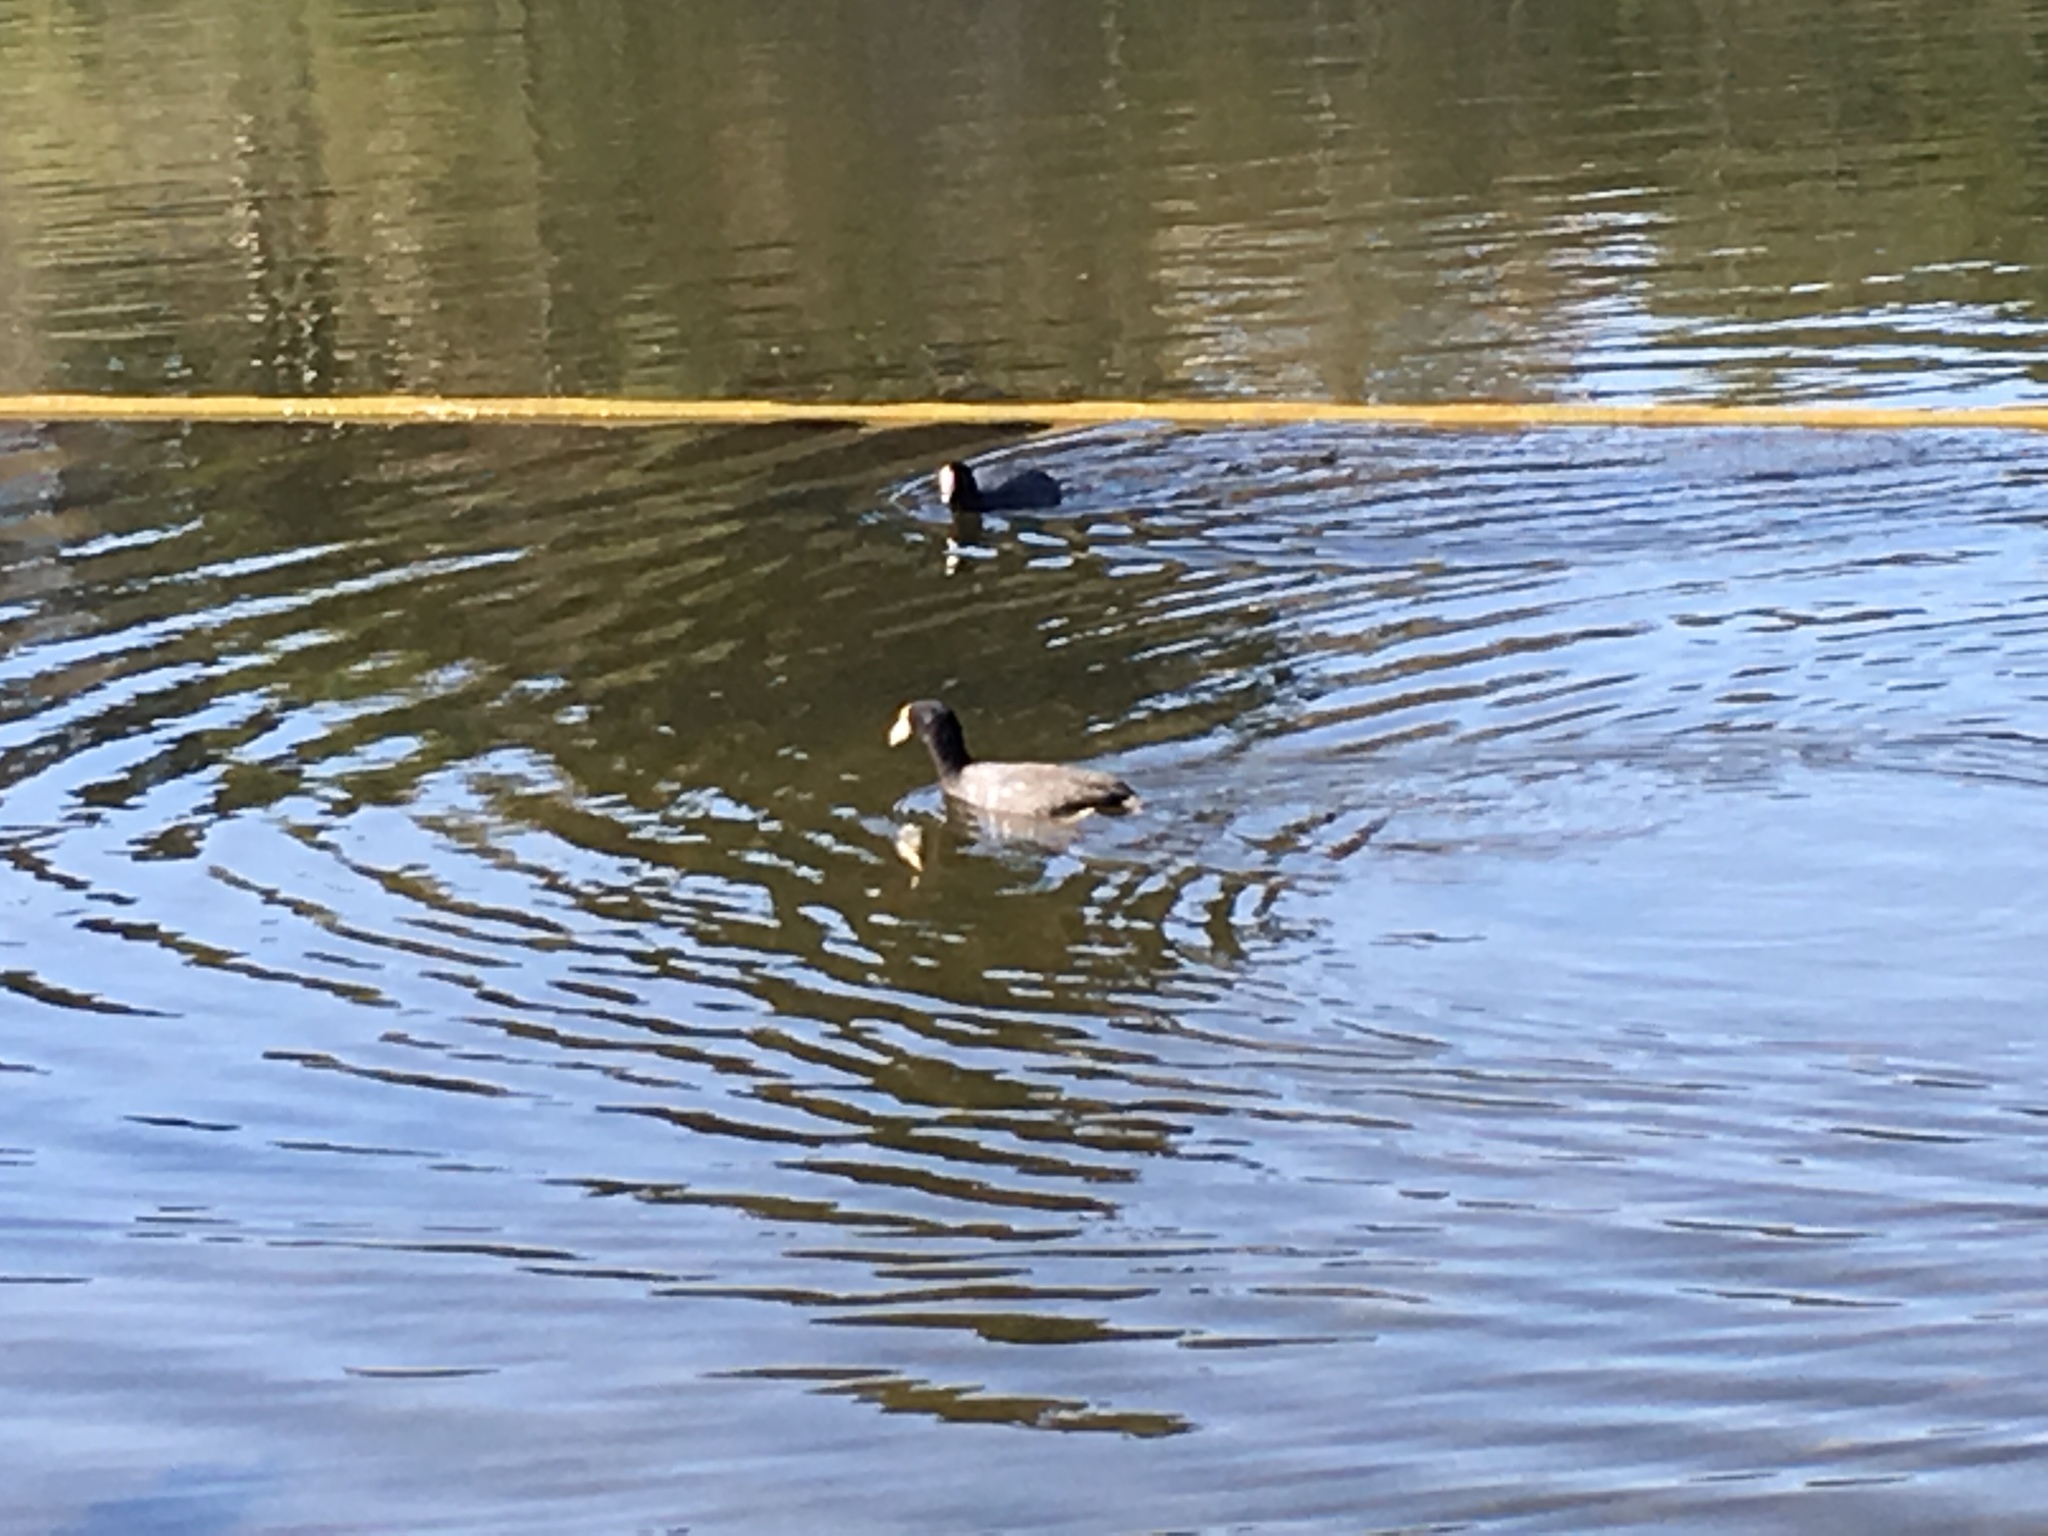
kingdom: Animalia
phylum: Chordata
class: Aves
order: Gruiformes
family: Rallidae
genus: Fulica
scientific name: Fulica americana
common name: American coot
